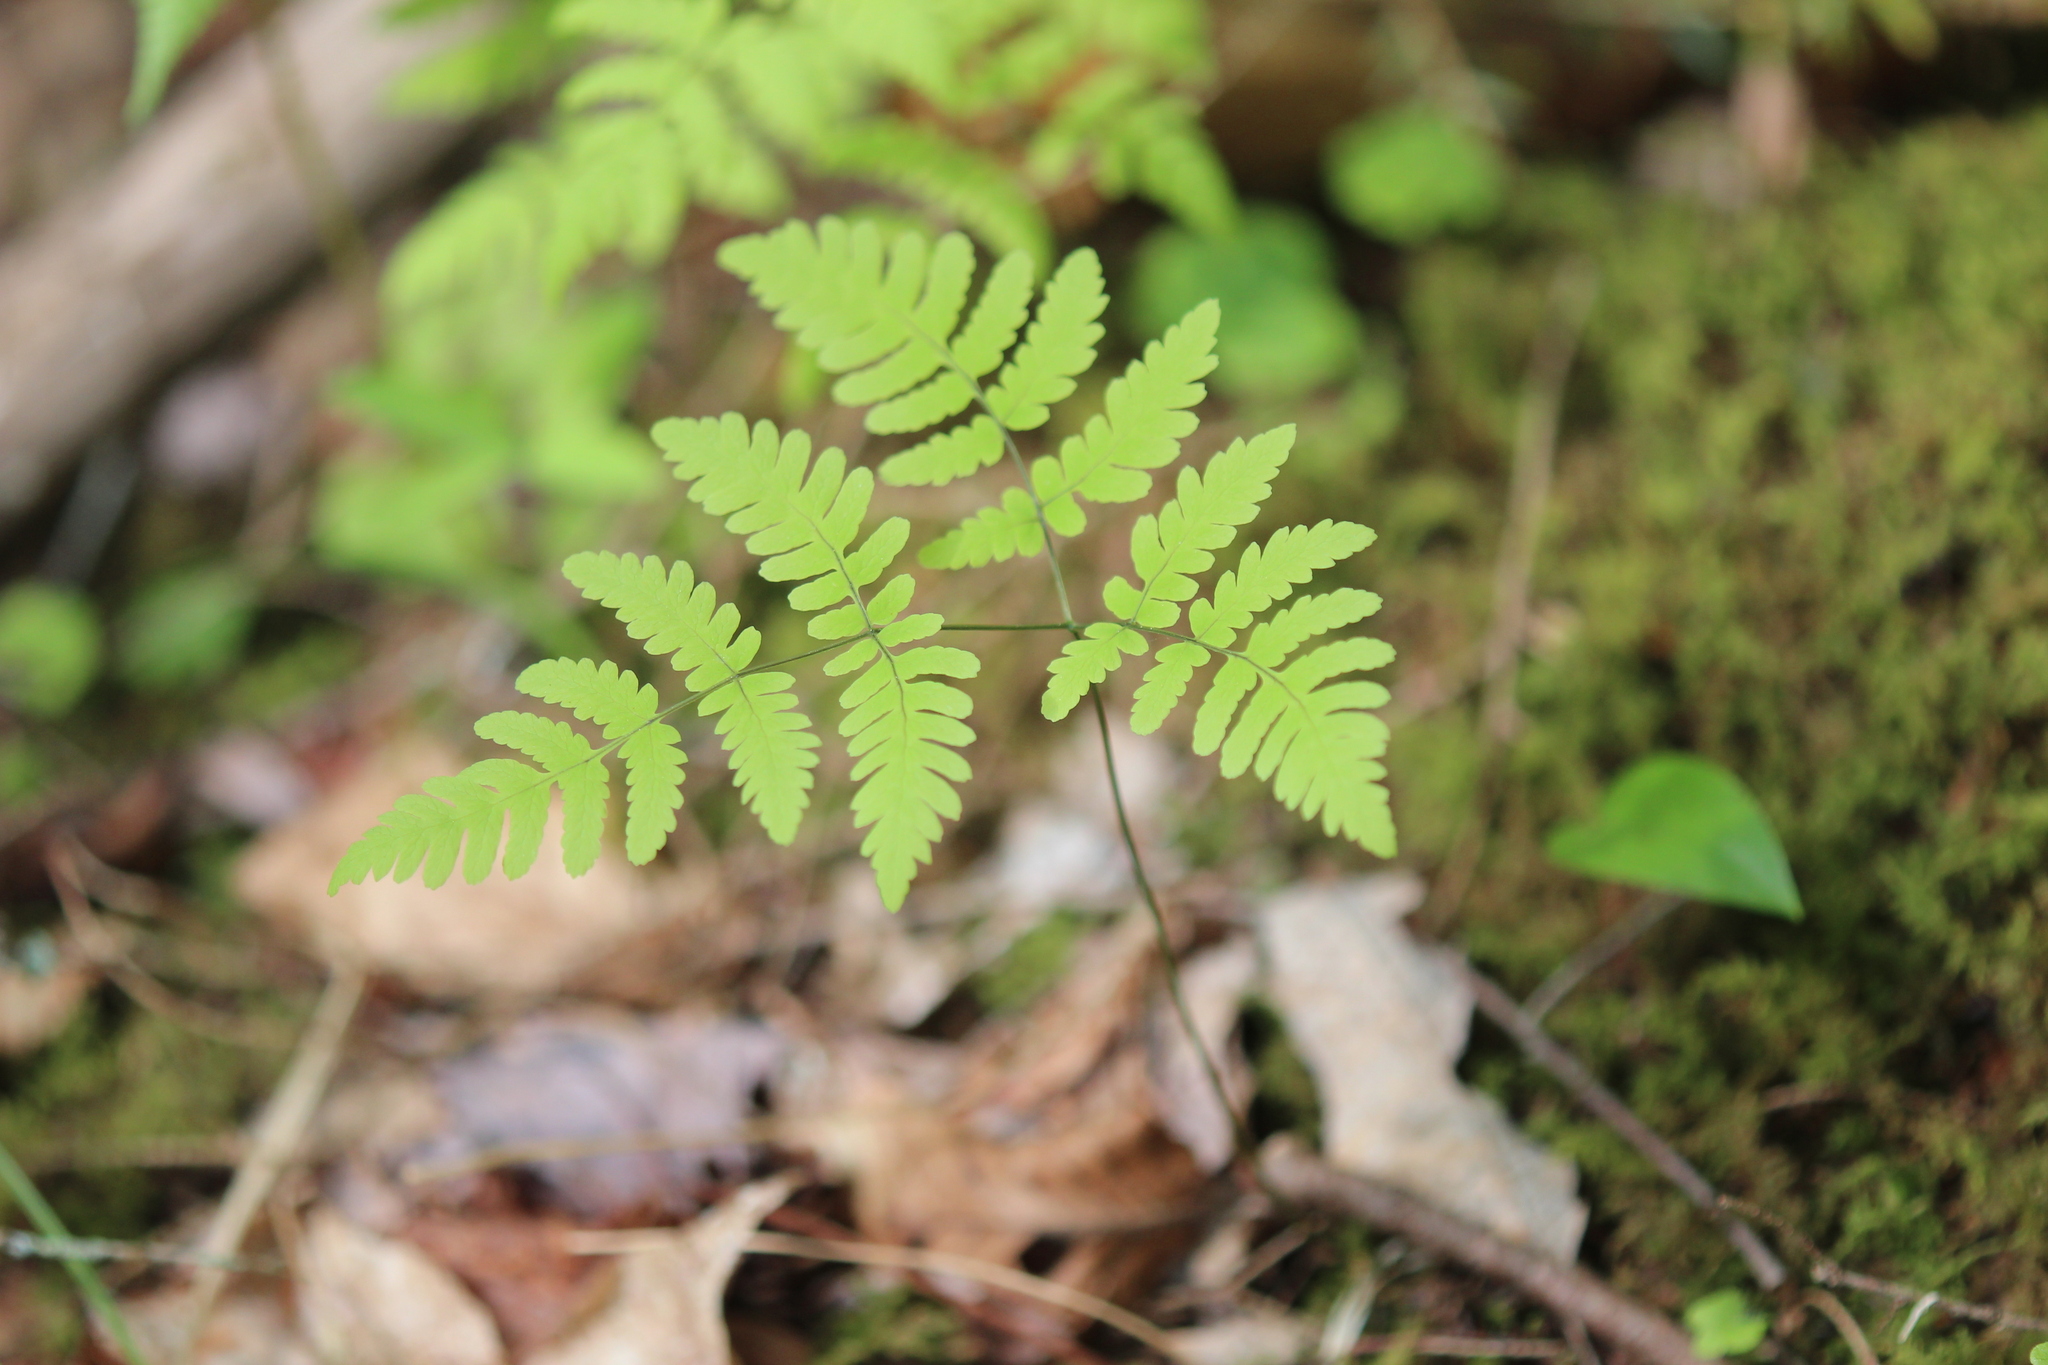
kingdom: Plantae
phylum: Tracheophyta
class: Polypodiopsida
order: Polypodiales
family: Cystopteridaceae
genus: Gymnocarpium
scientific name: Gymnocarpium dryopteris
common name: Oak fern
